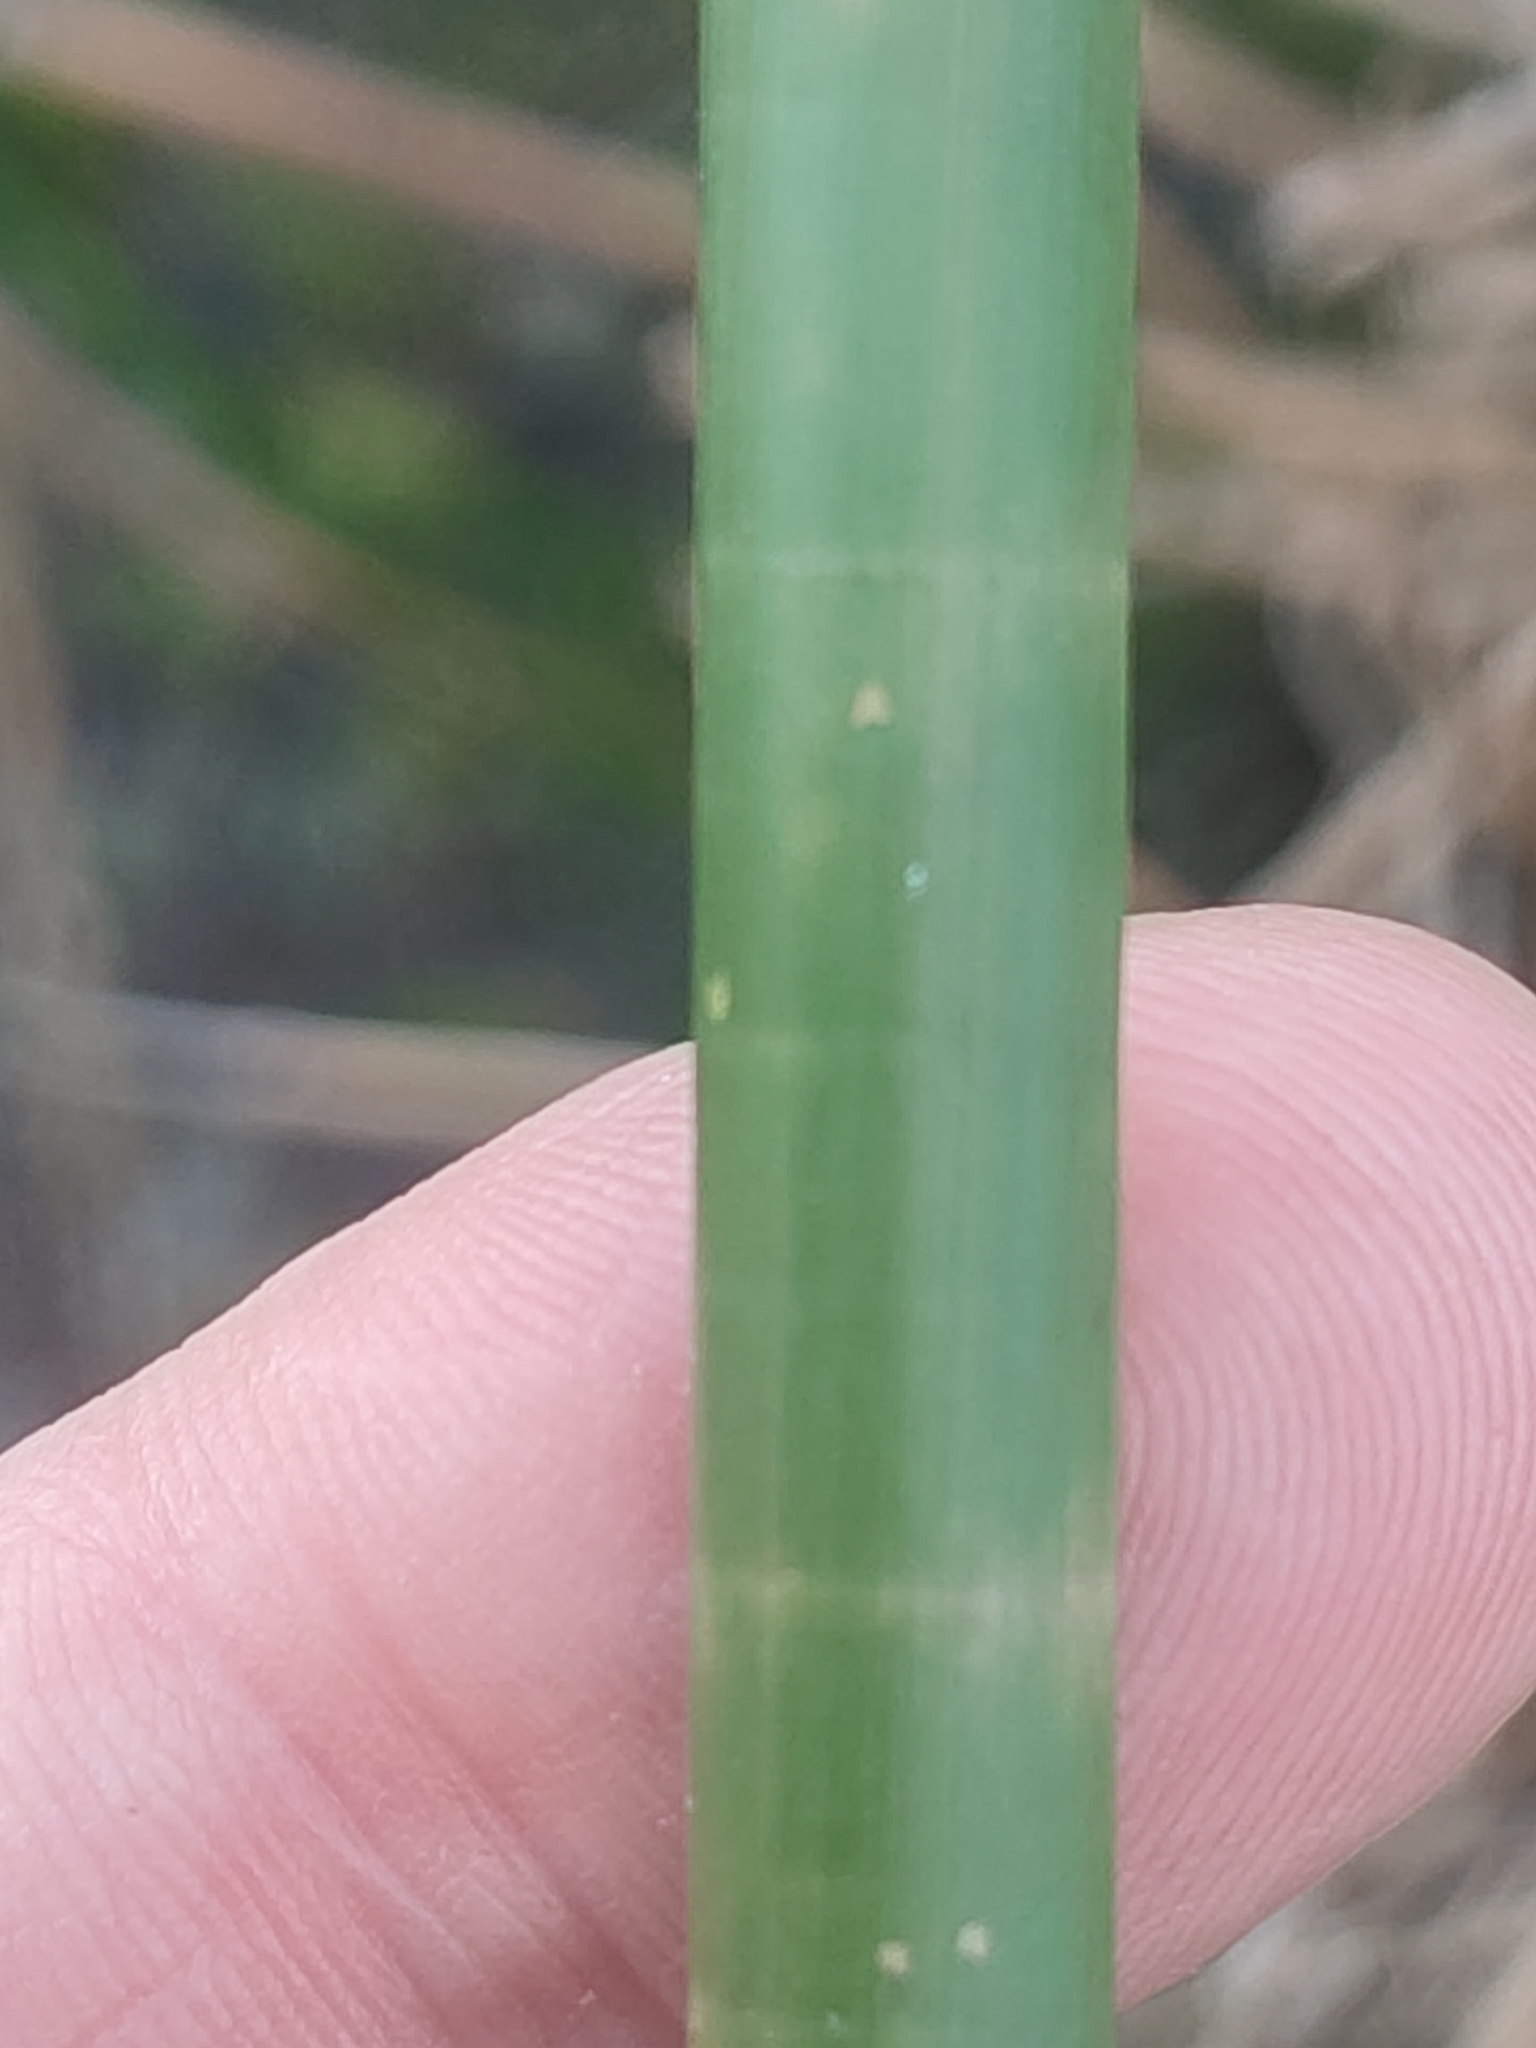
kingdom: Plantae
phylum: Tracheophyta
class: Liliopsida
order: Poales
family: Cyperaceae
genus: Eleocharis
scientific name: Eleocharis sphacelata
